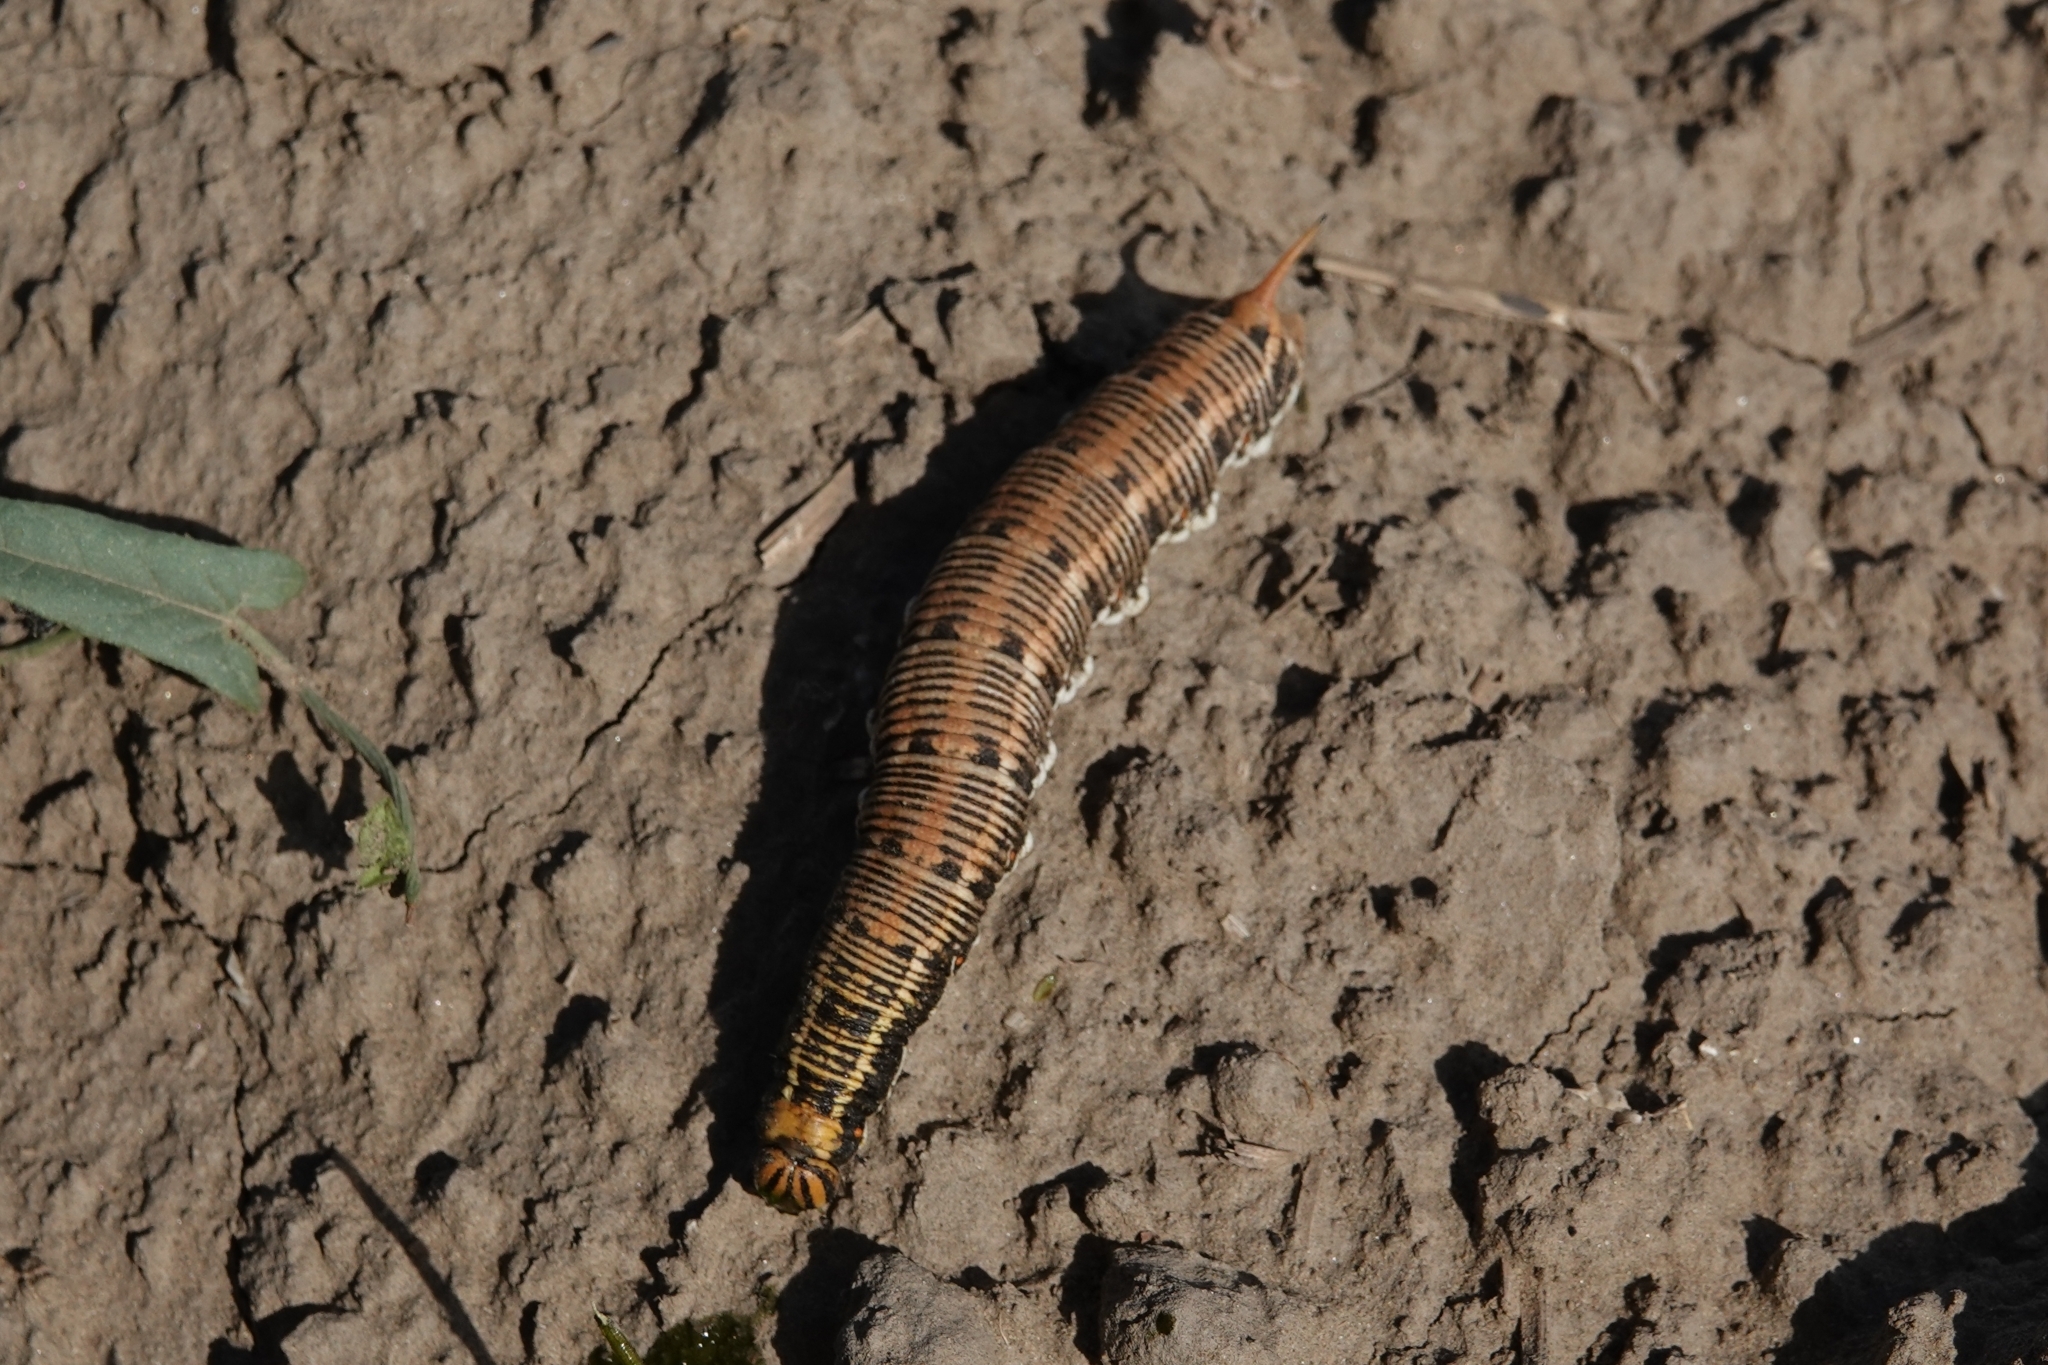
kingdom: Animalia
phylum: Arthropoda
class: Insecta
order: Lepidoptera
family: Sphingidae
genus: Agrius
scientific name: Agrius convolvuli
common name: Convolvulus hawkmoth
